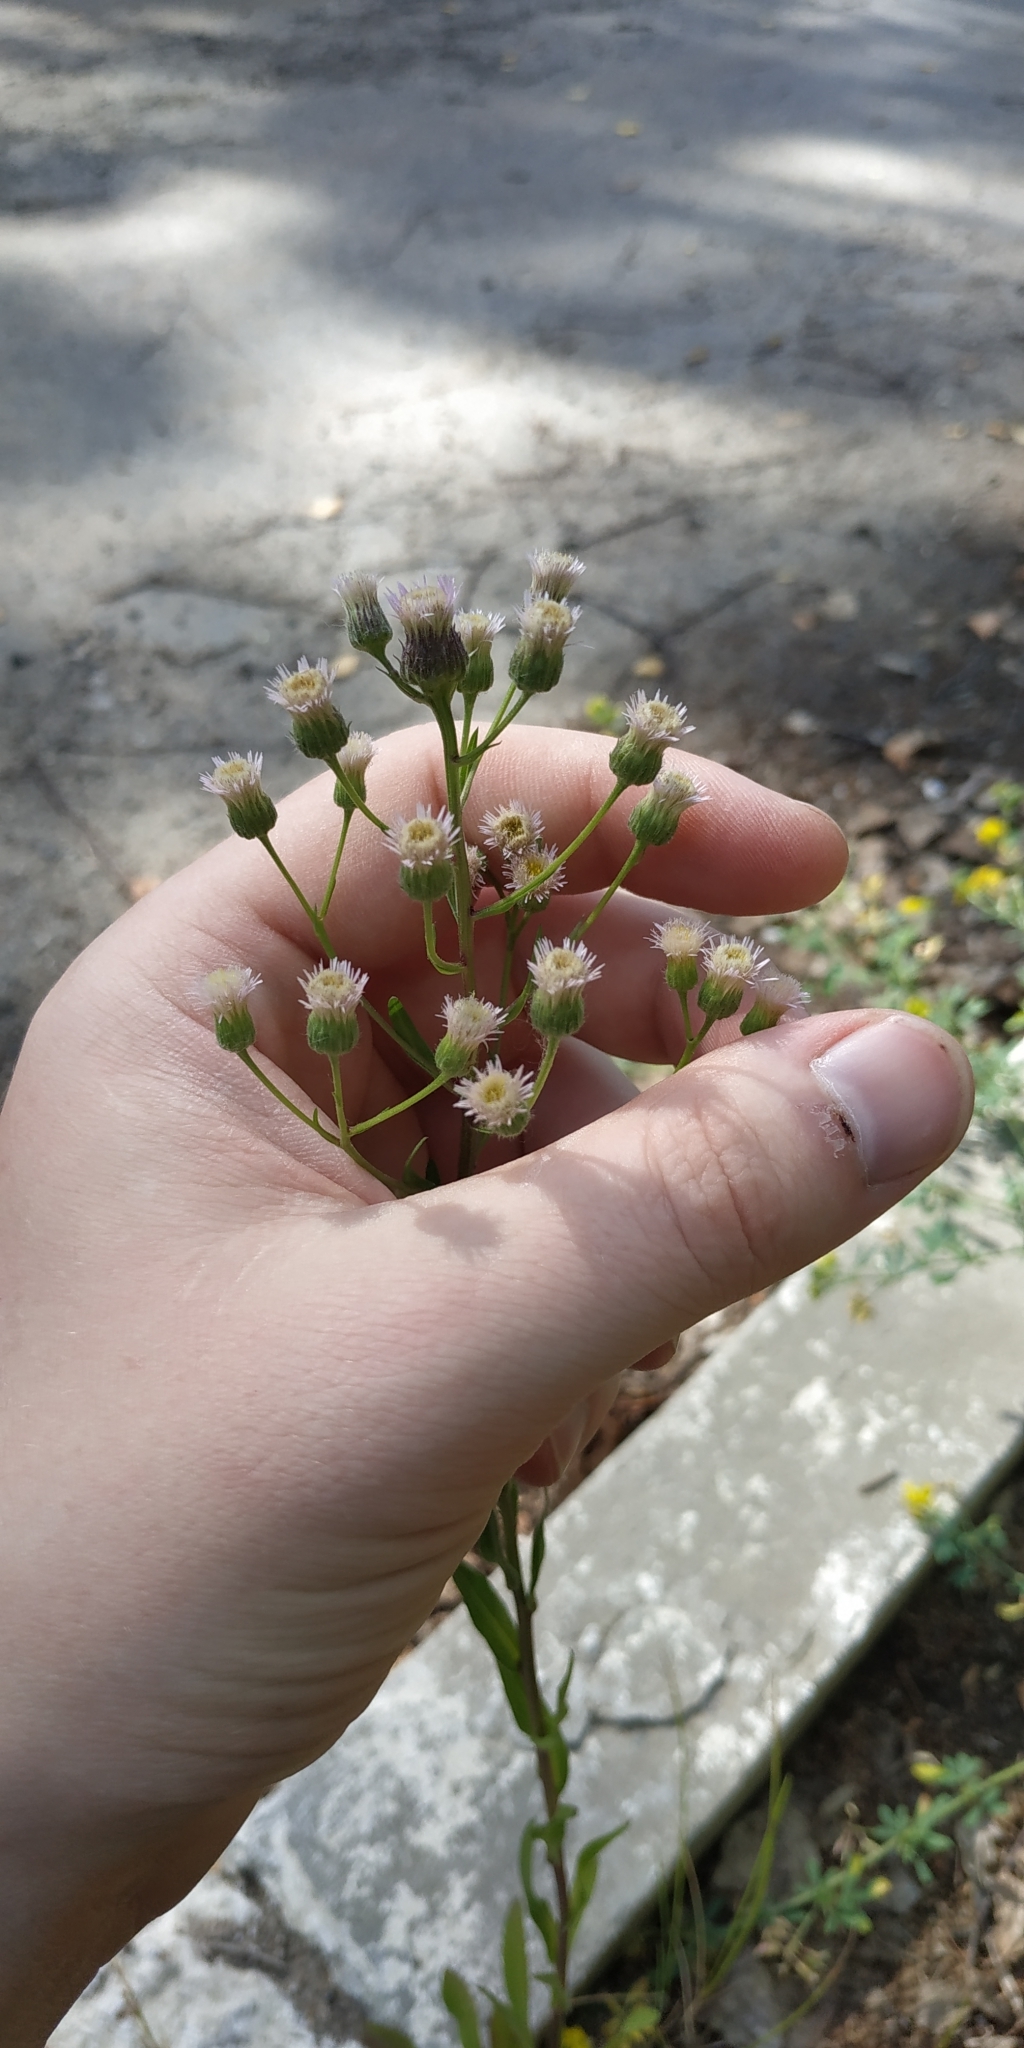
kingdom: Plantae
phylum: Tracheophyta
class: Magnoliopsida
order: Asterales
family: Asteraceae
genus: Erigeron
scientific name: Erigeron acris
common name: Blue fleabane
